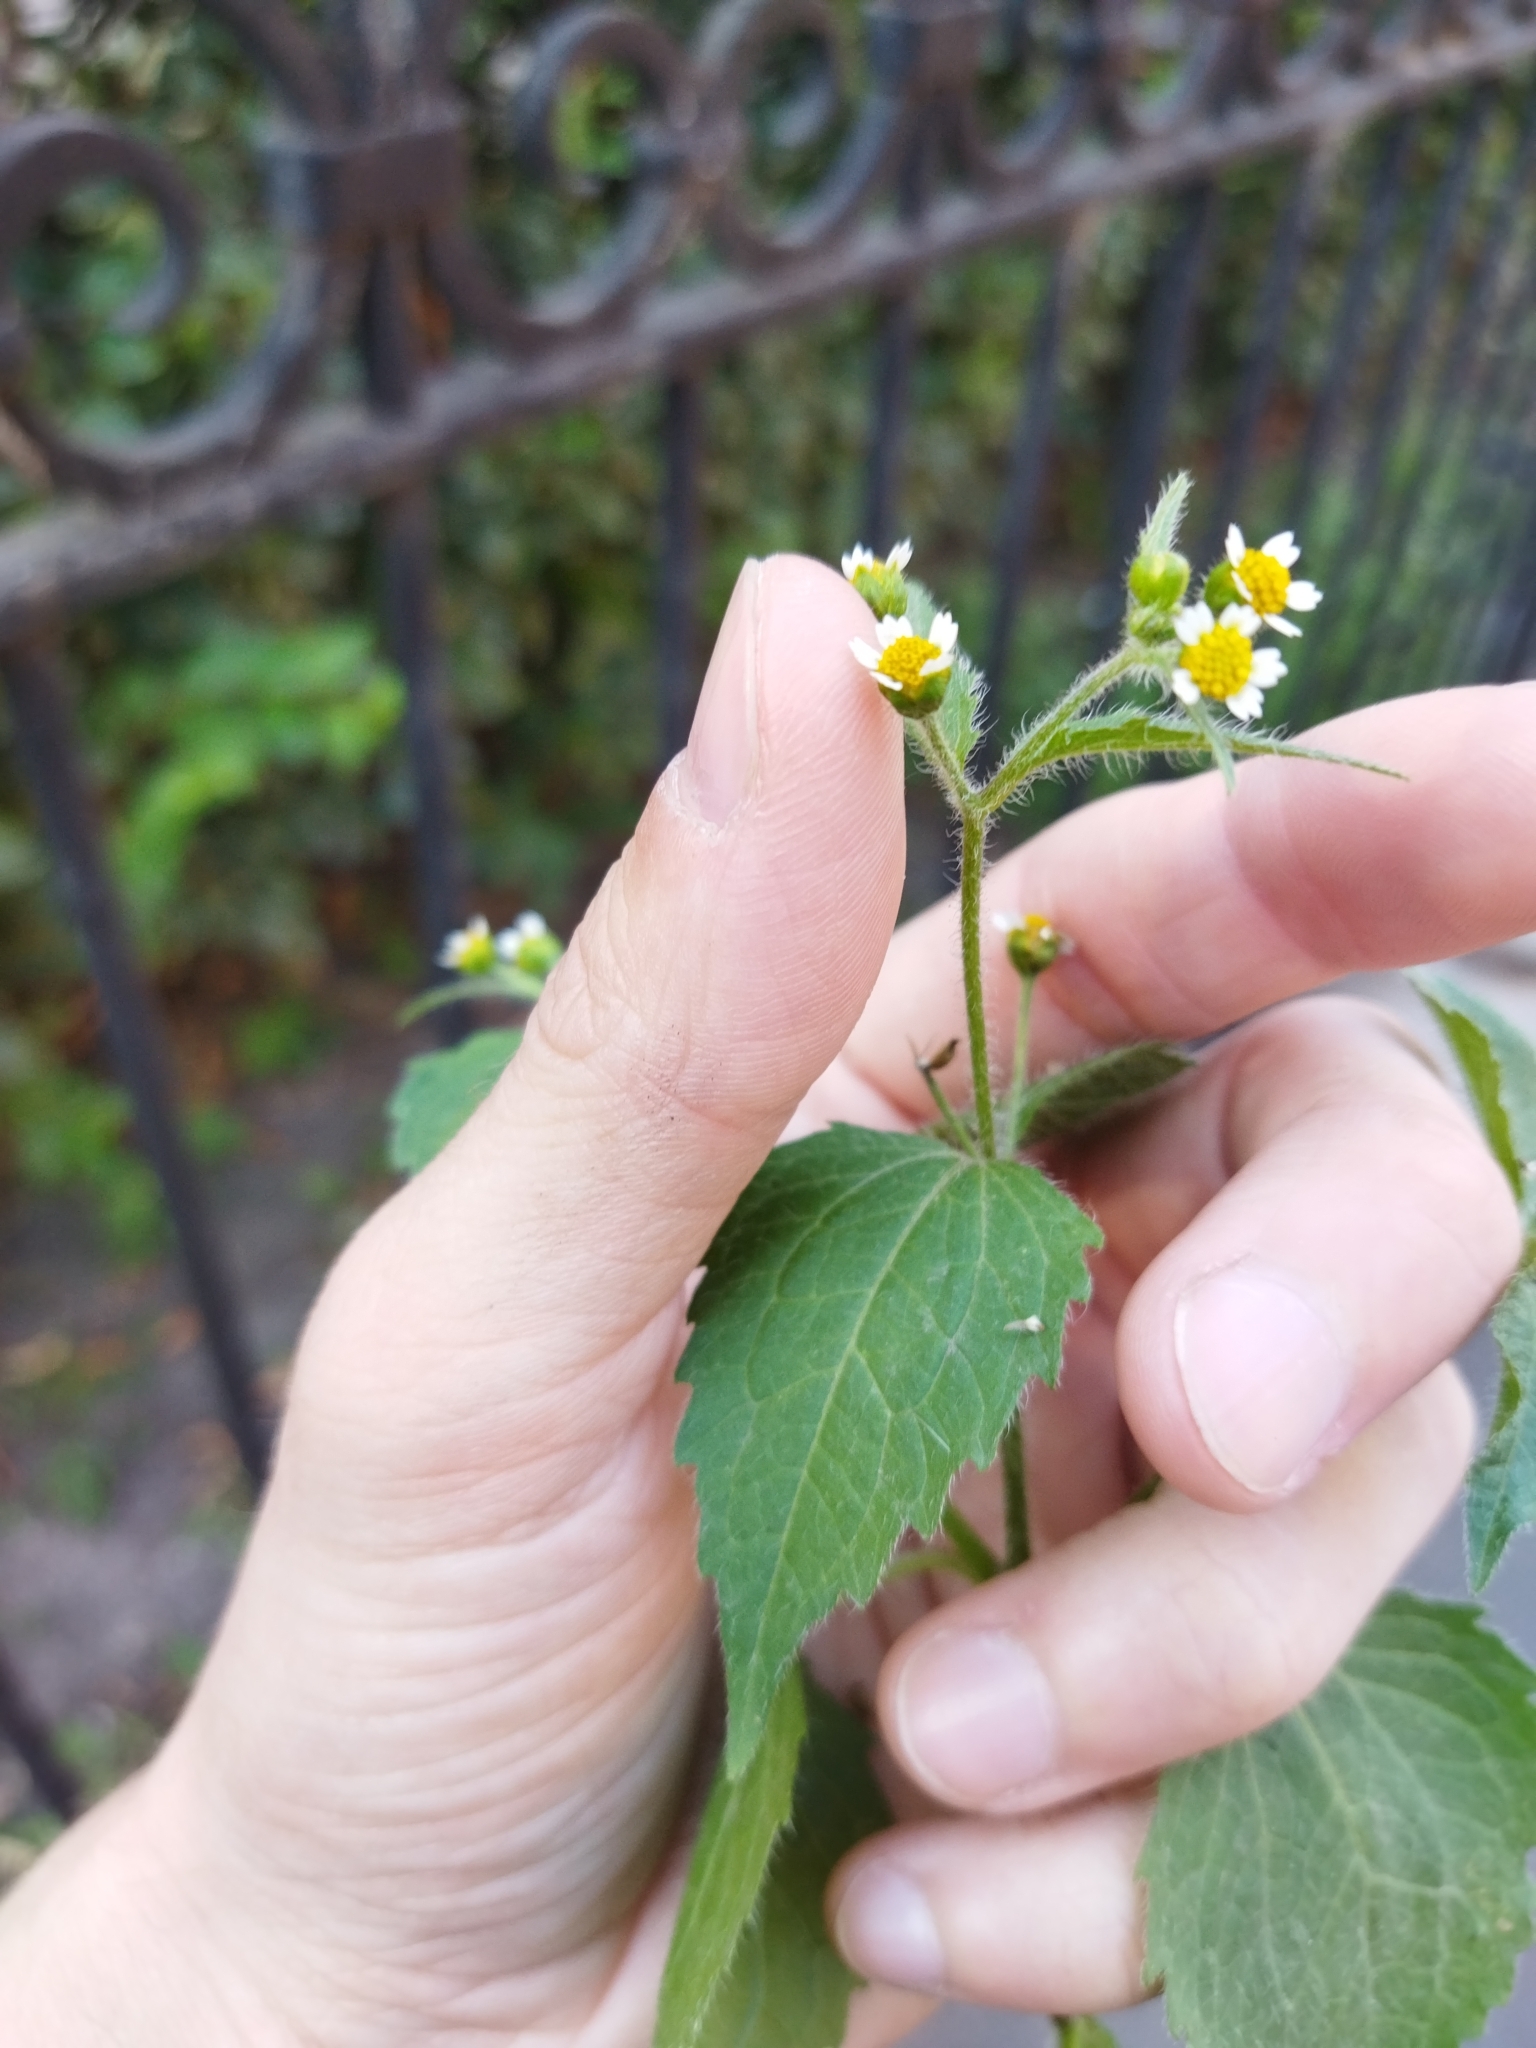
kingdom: Plantae
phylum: Tracheophyta
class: Magnoliopsida
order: Asterales
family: Asteraceae
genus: Galinsoga
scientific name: Galinsoga quadriradiata
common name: Shaggy soldier
